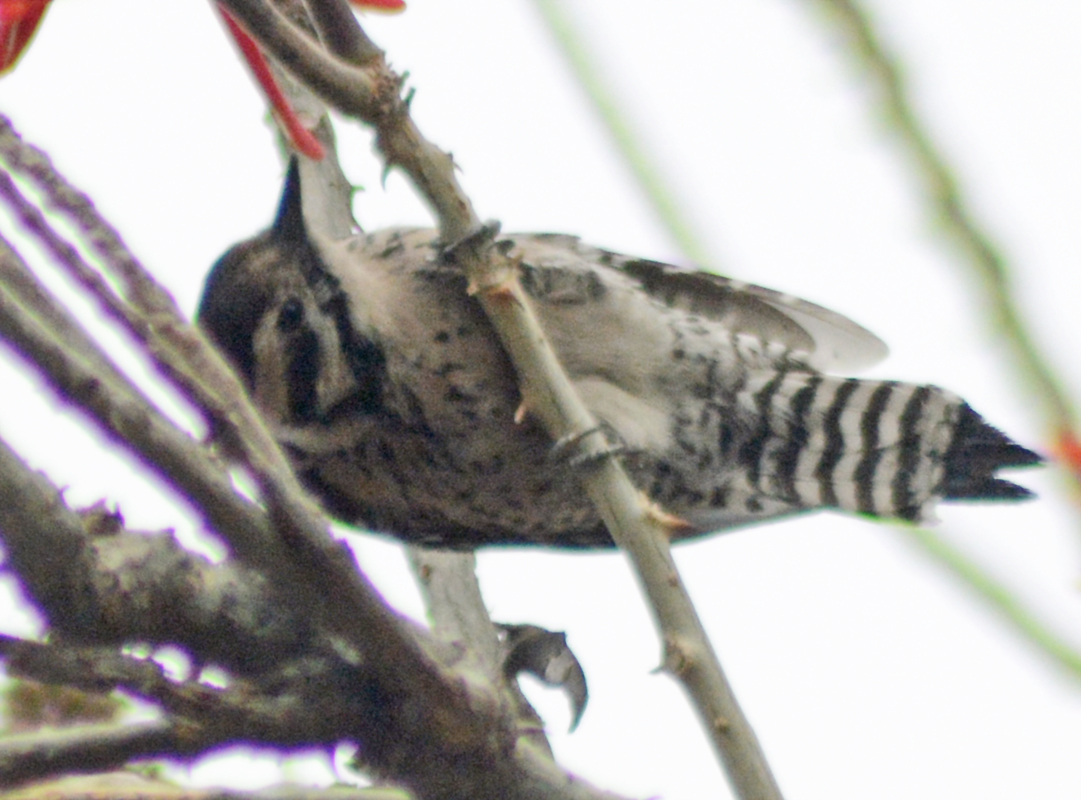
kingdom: Animalia
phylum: Chordata
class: Aves
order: Piciformes
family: Picidae
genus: Dryobates
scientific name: Dryobates scalaris
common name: Ladder-backed woodpecker
